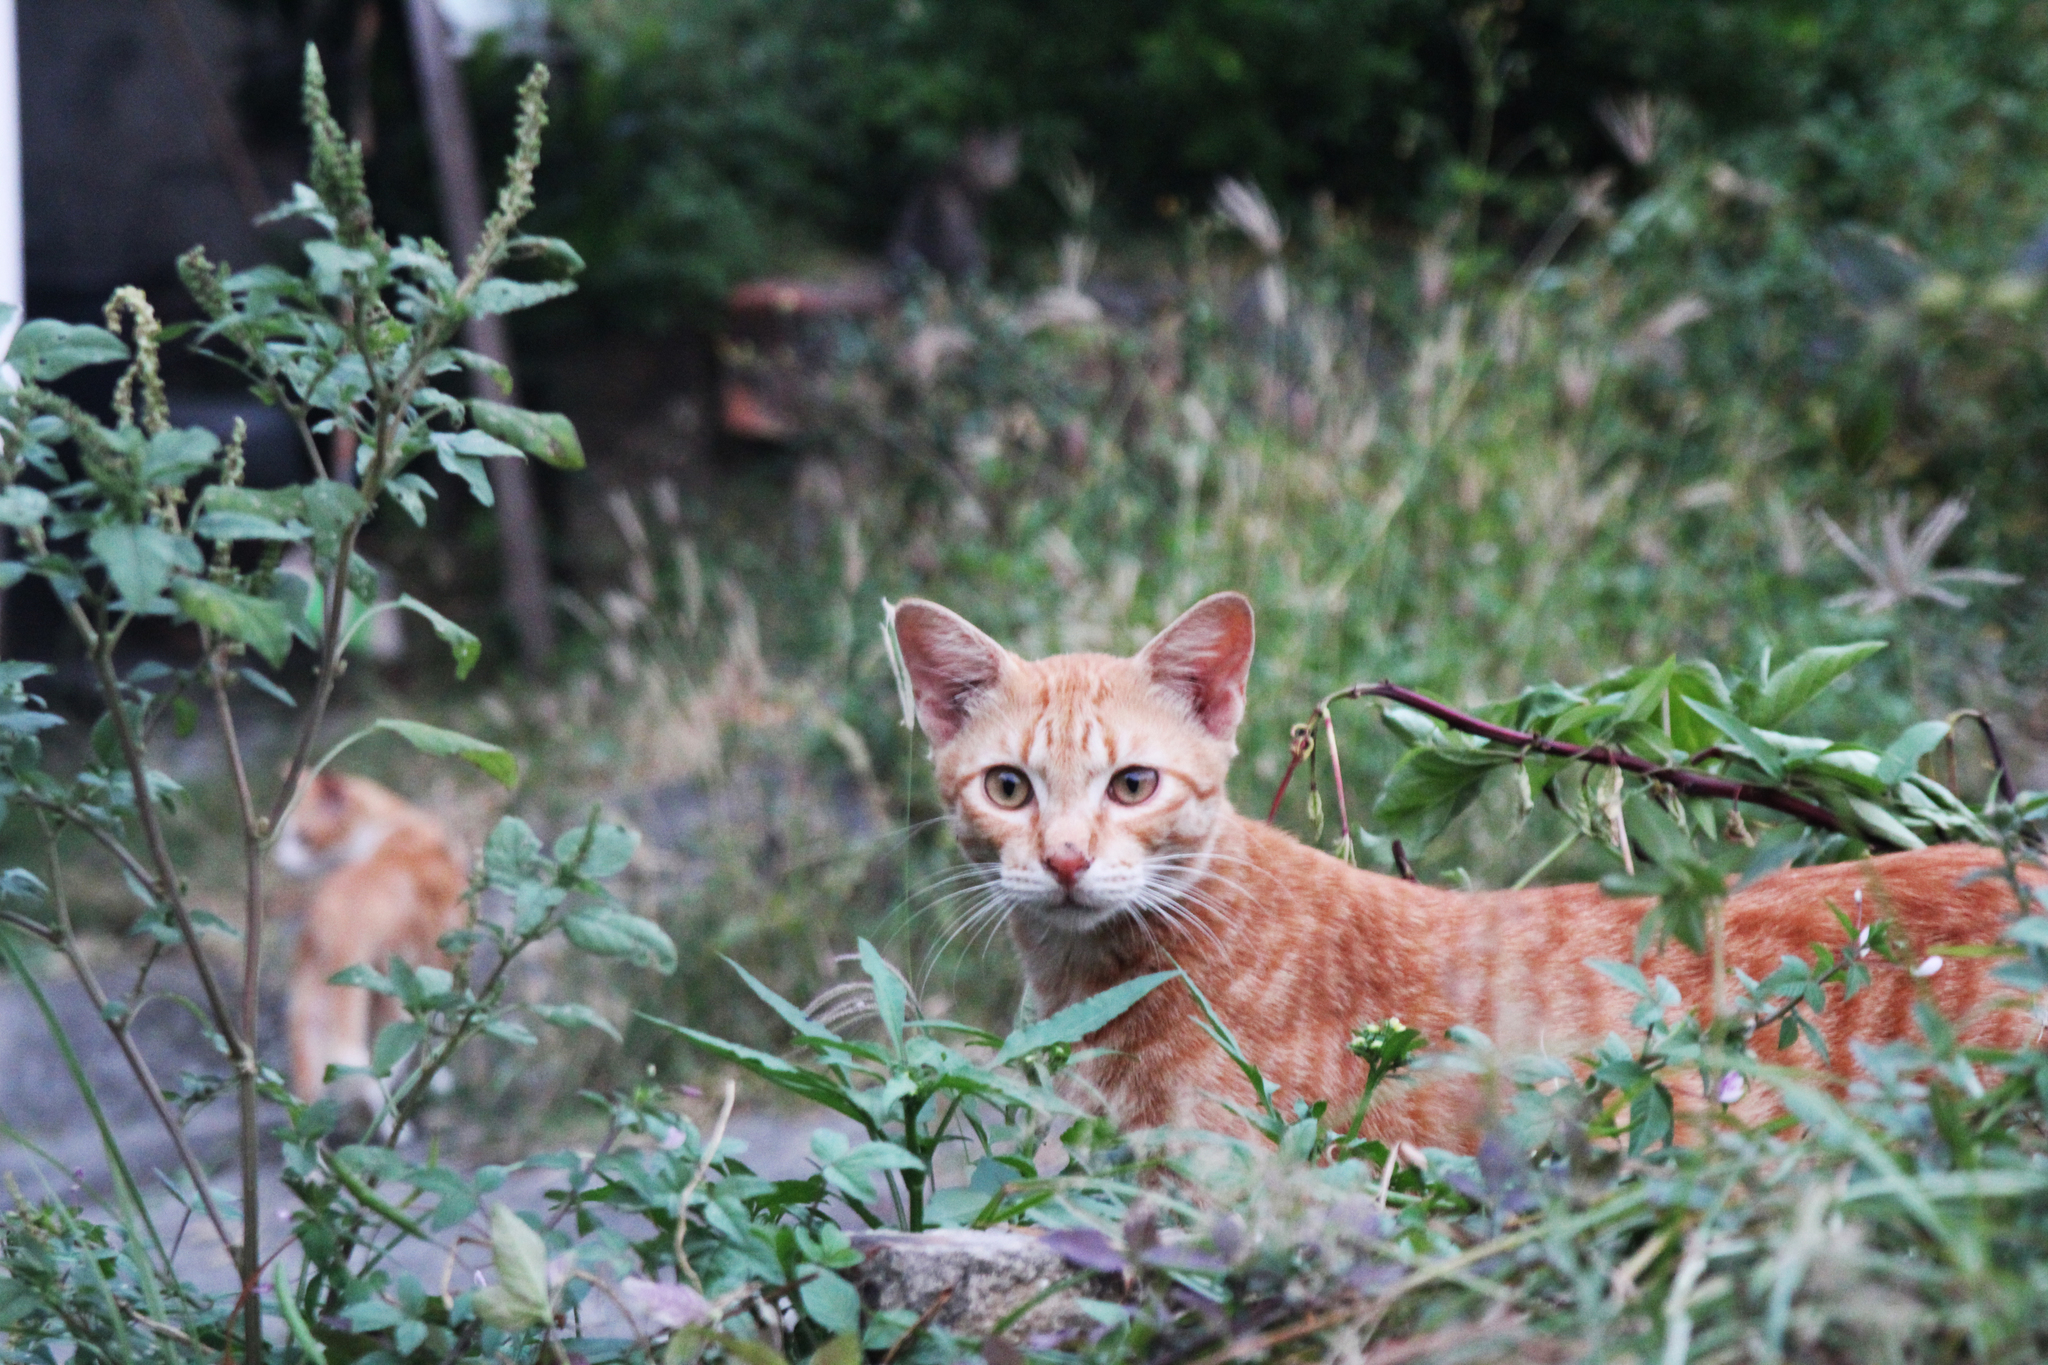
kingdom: Animalia
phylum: Chordata
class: Mammalia
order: Carnivora
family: Felidae
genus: Felis
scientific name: Felis catus
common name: Domestic cat
